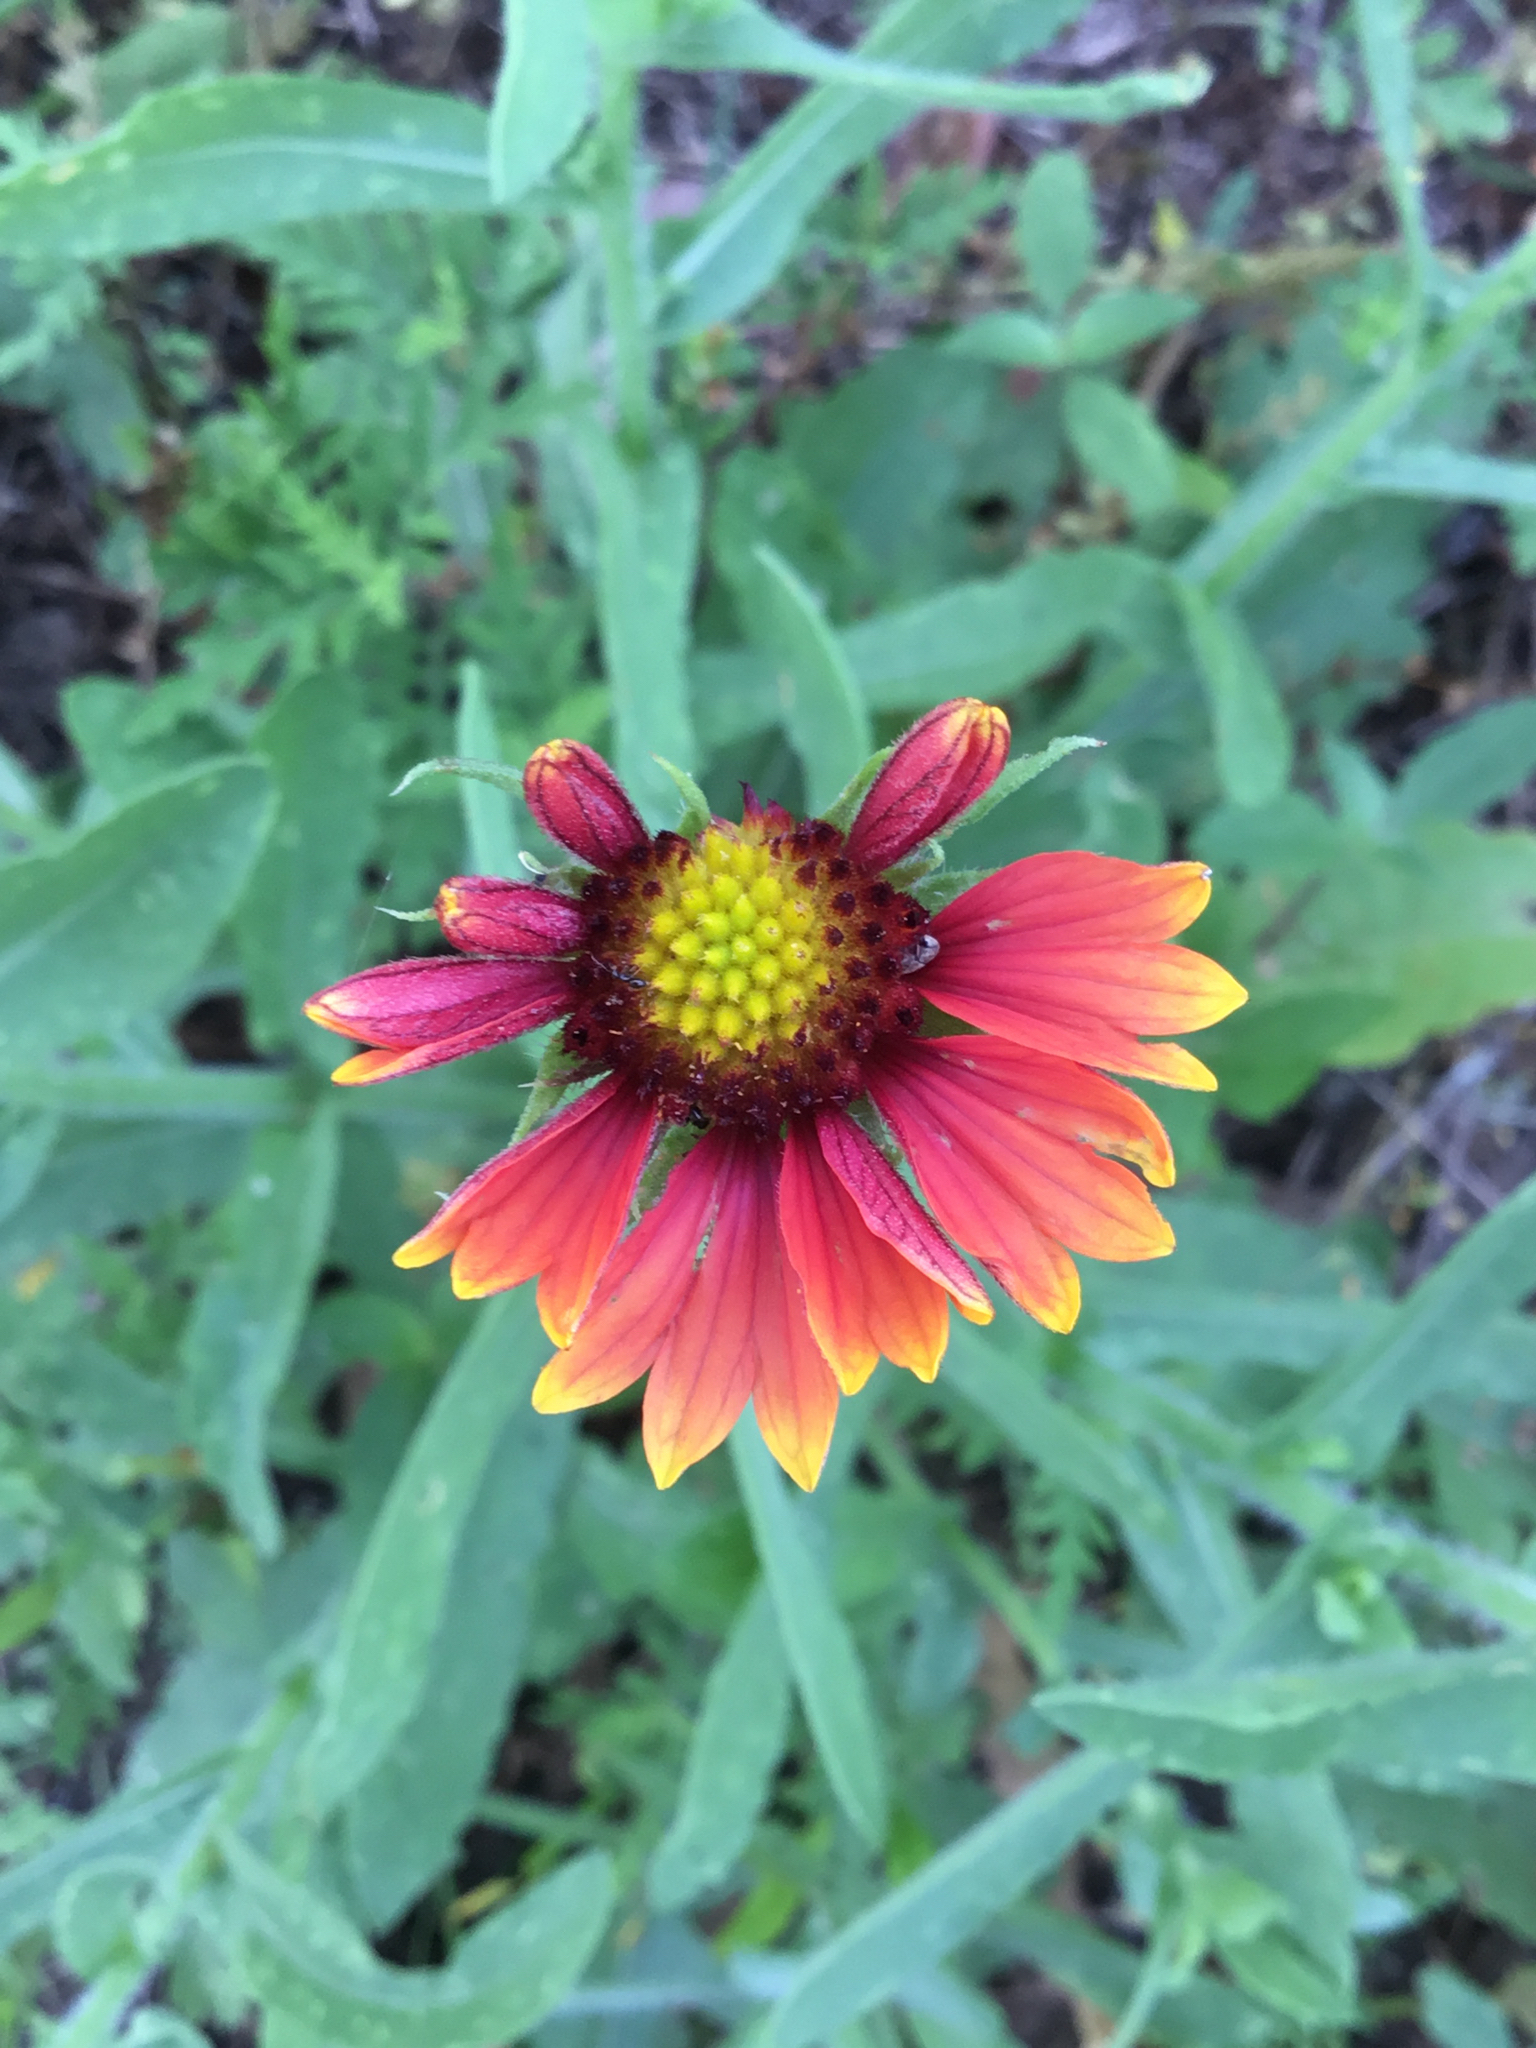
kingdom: Plantae
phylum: Tracheophyta
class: Magnoliopsida
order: Asterales
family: Asteraceae
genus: Gaillardia
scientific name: Gaillardia pulchella
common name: Firewheel
